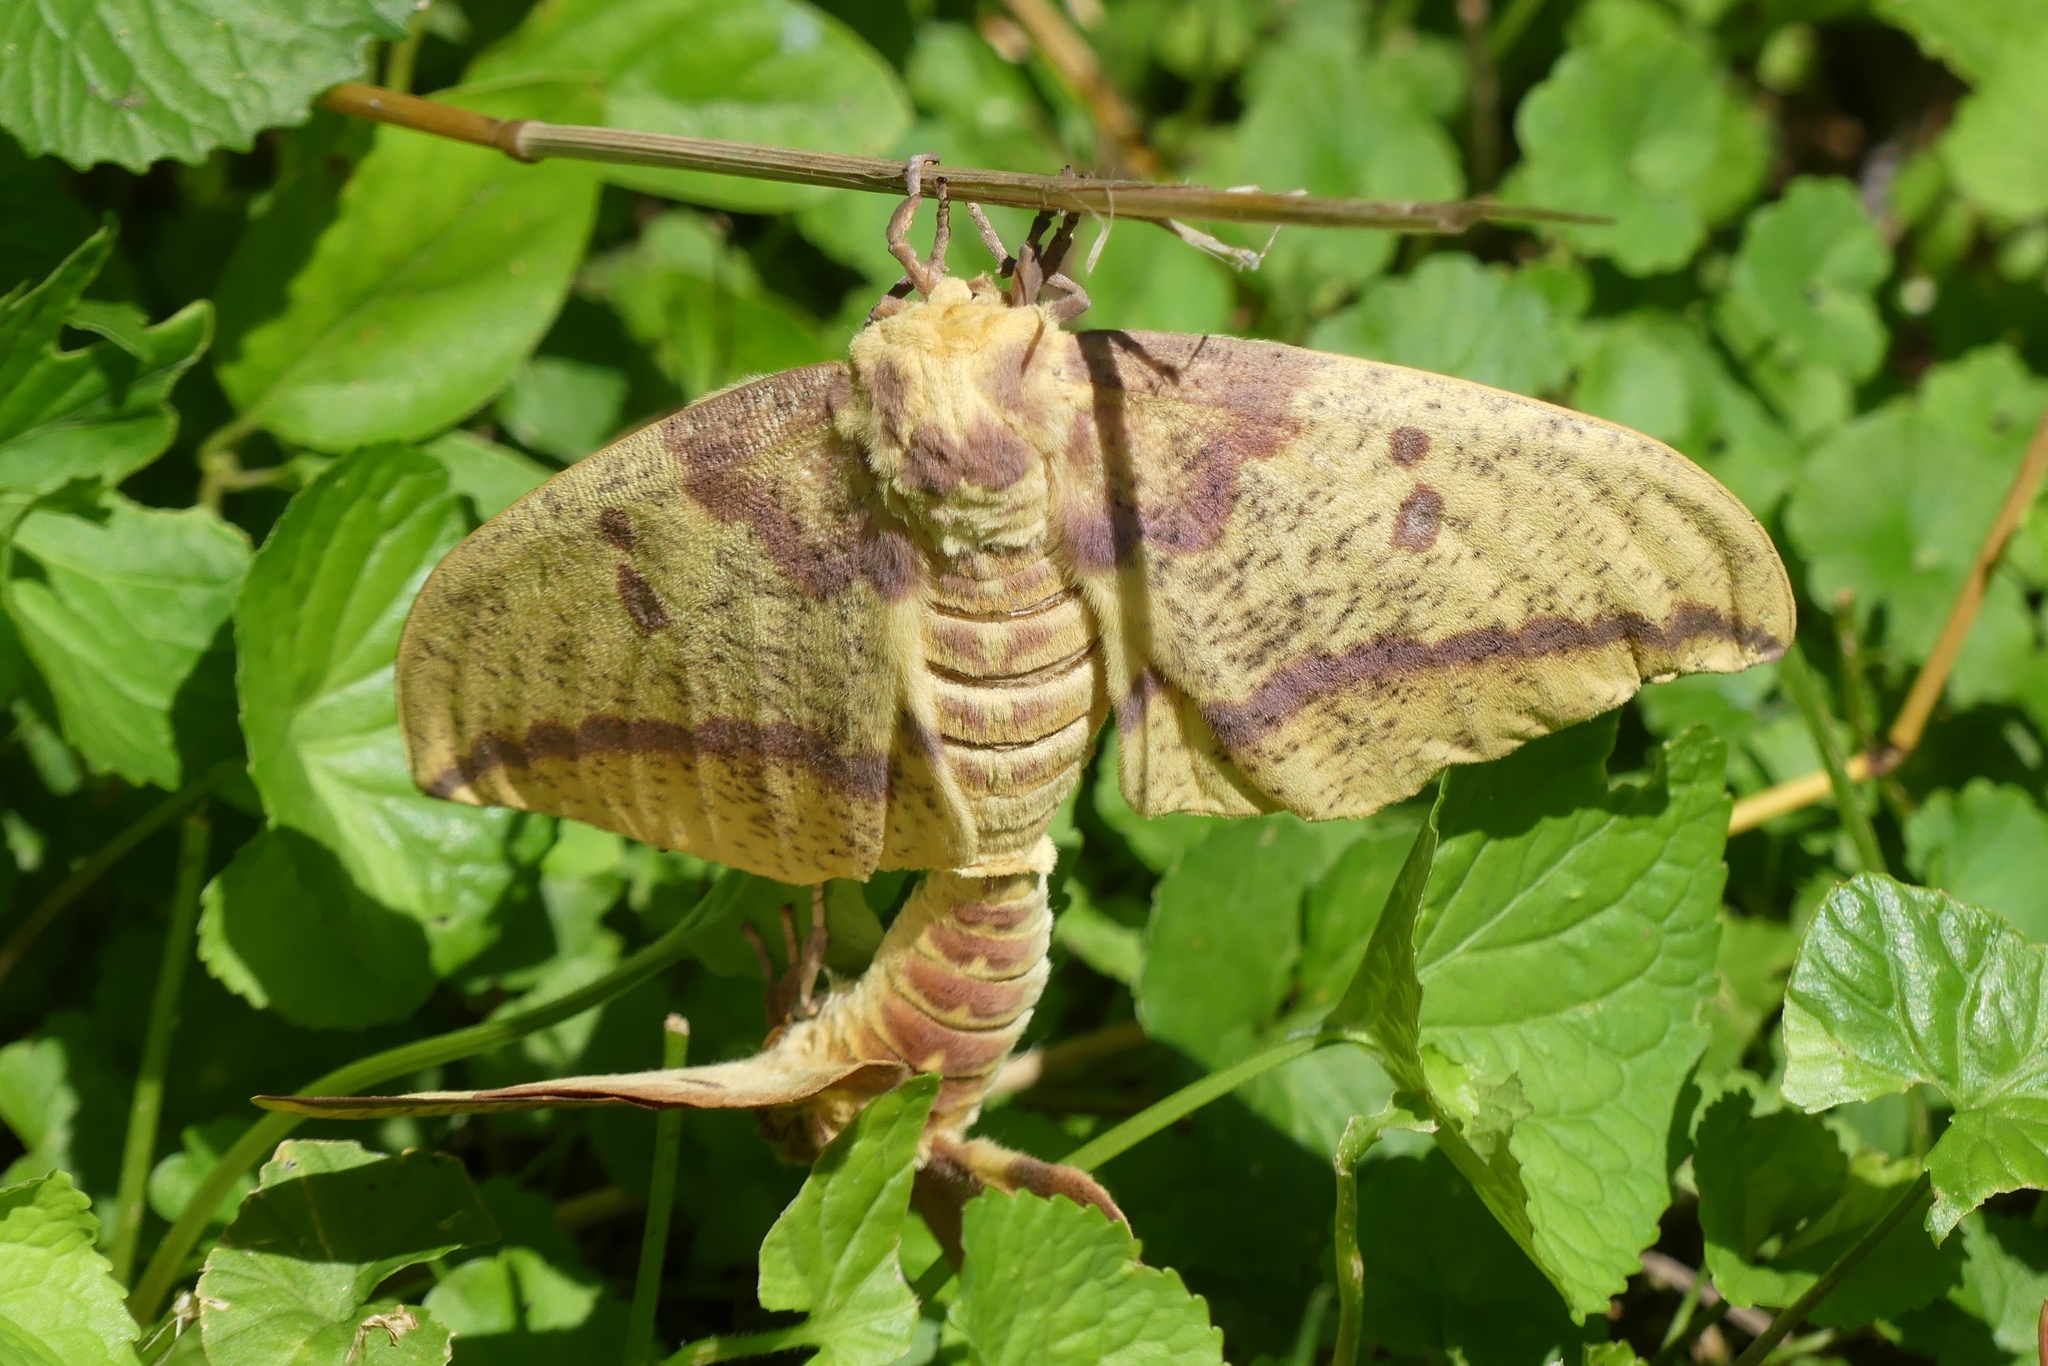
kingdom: Animalia
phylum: Arthropoda
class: Insecta
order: Lepidoptera
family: Saturniidae
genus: Eacles
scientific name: Eacles imperialis
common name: Imperial moth
